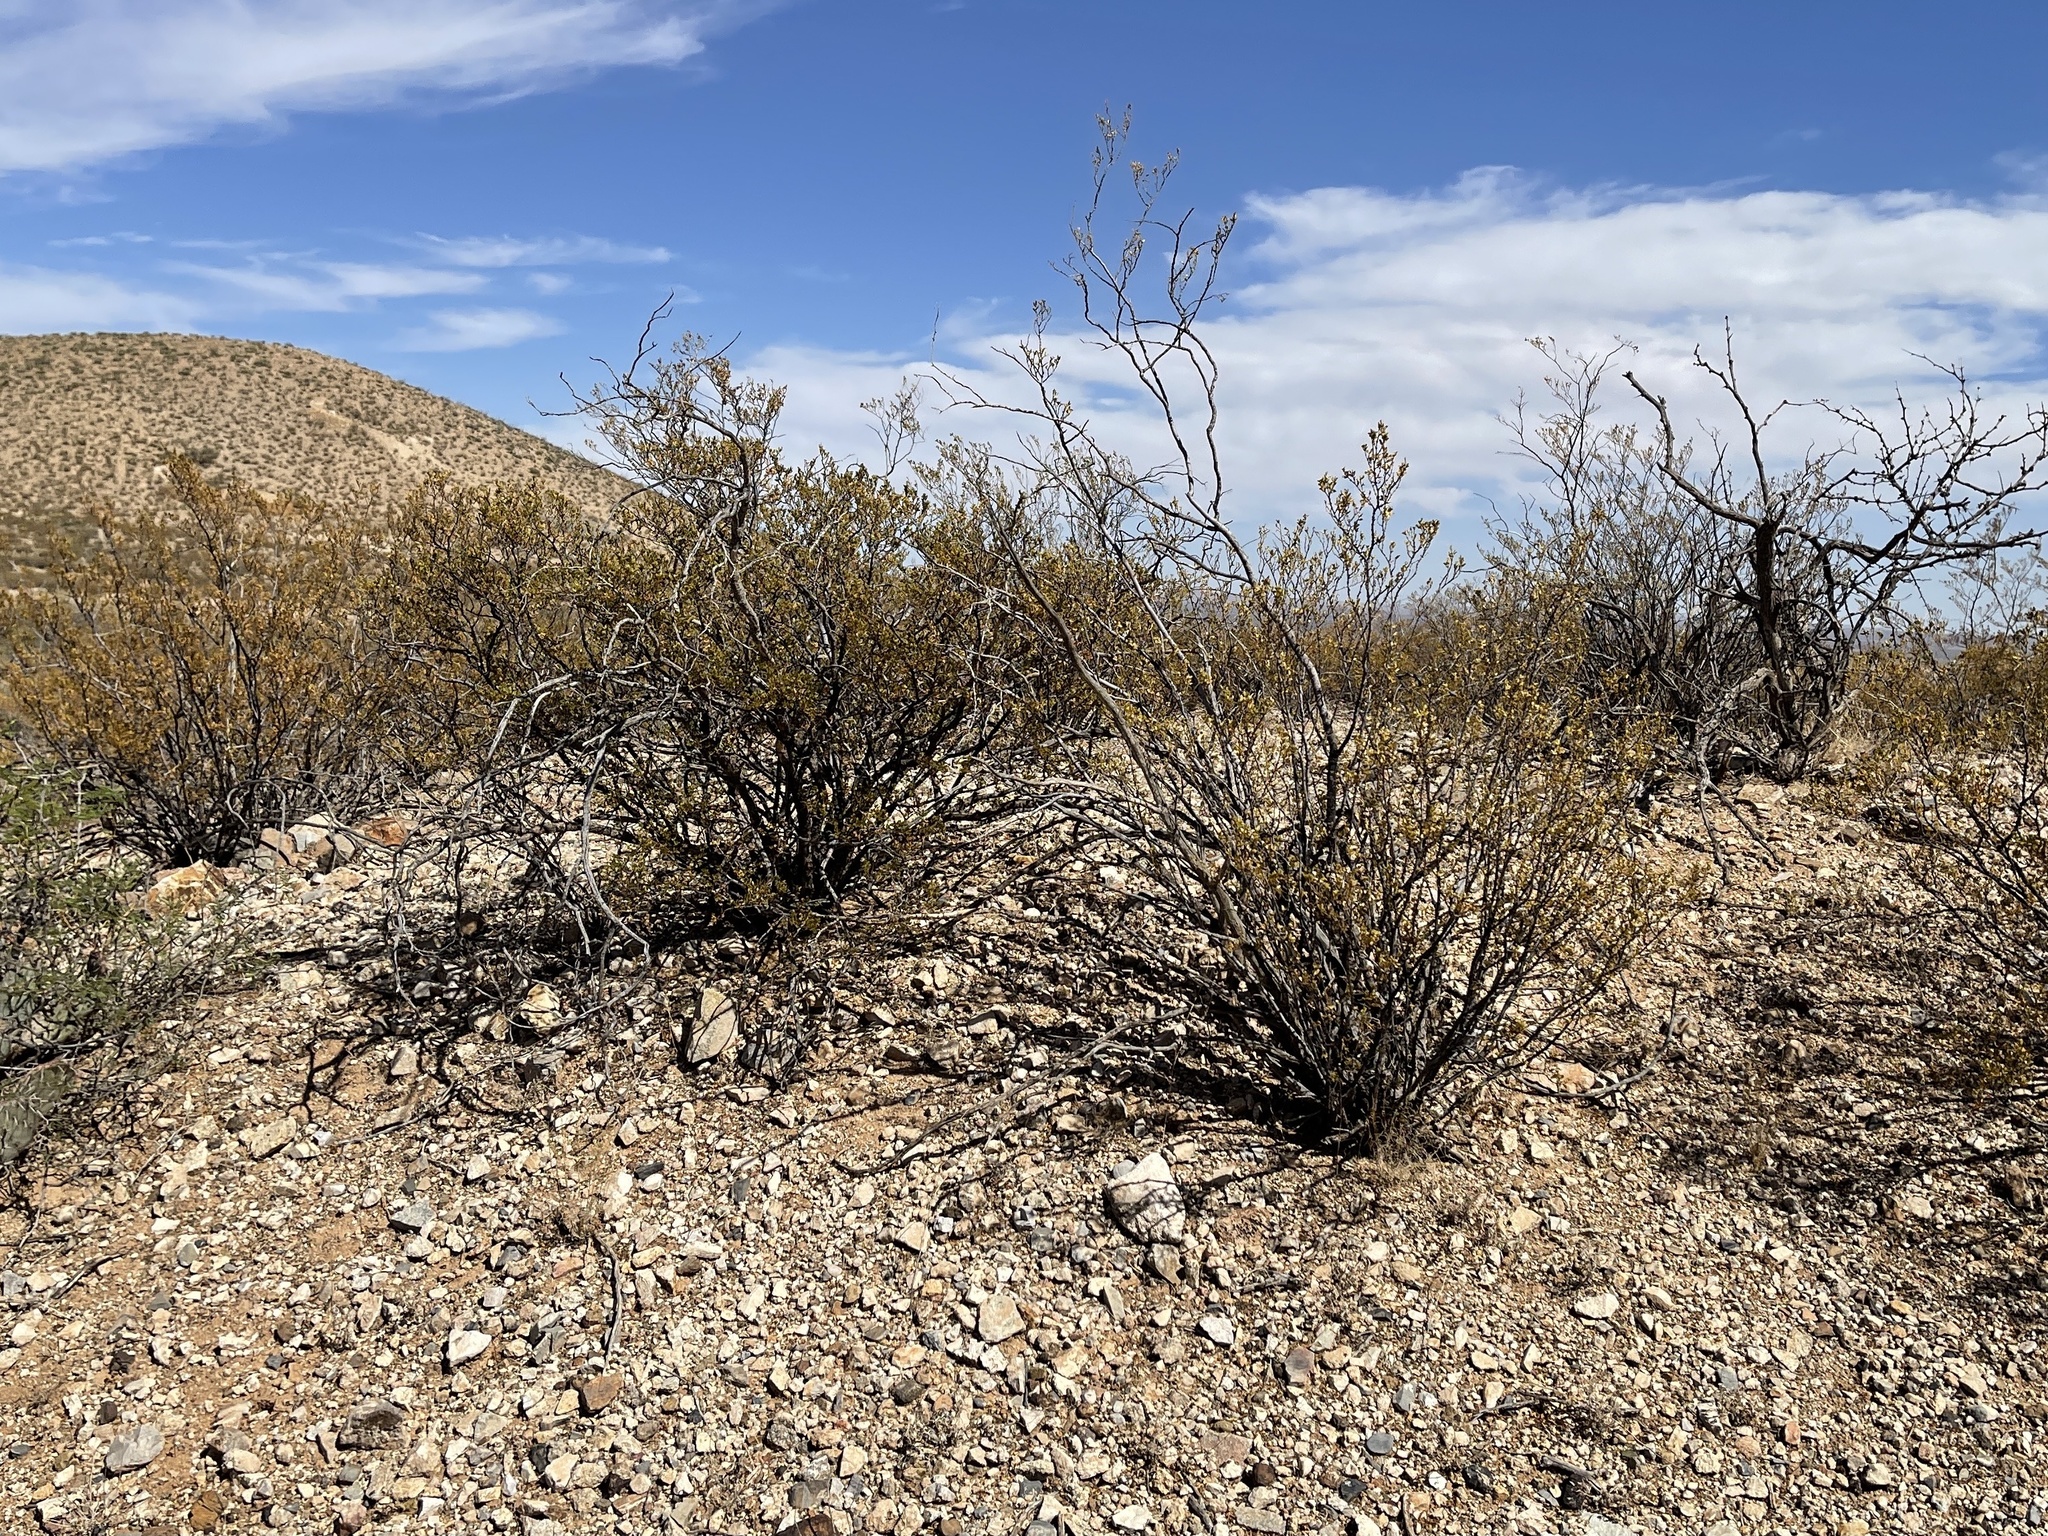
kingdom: Plantae
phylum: Tracheophyta
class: Magnoliopsida
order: Zygophyllales
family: Zygophyllaceae
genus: Larrea
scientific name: Larrea tridentata
